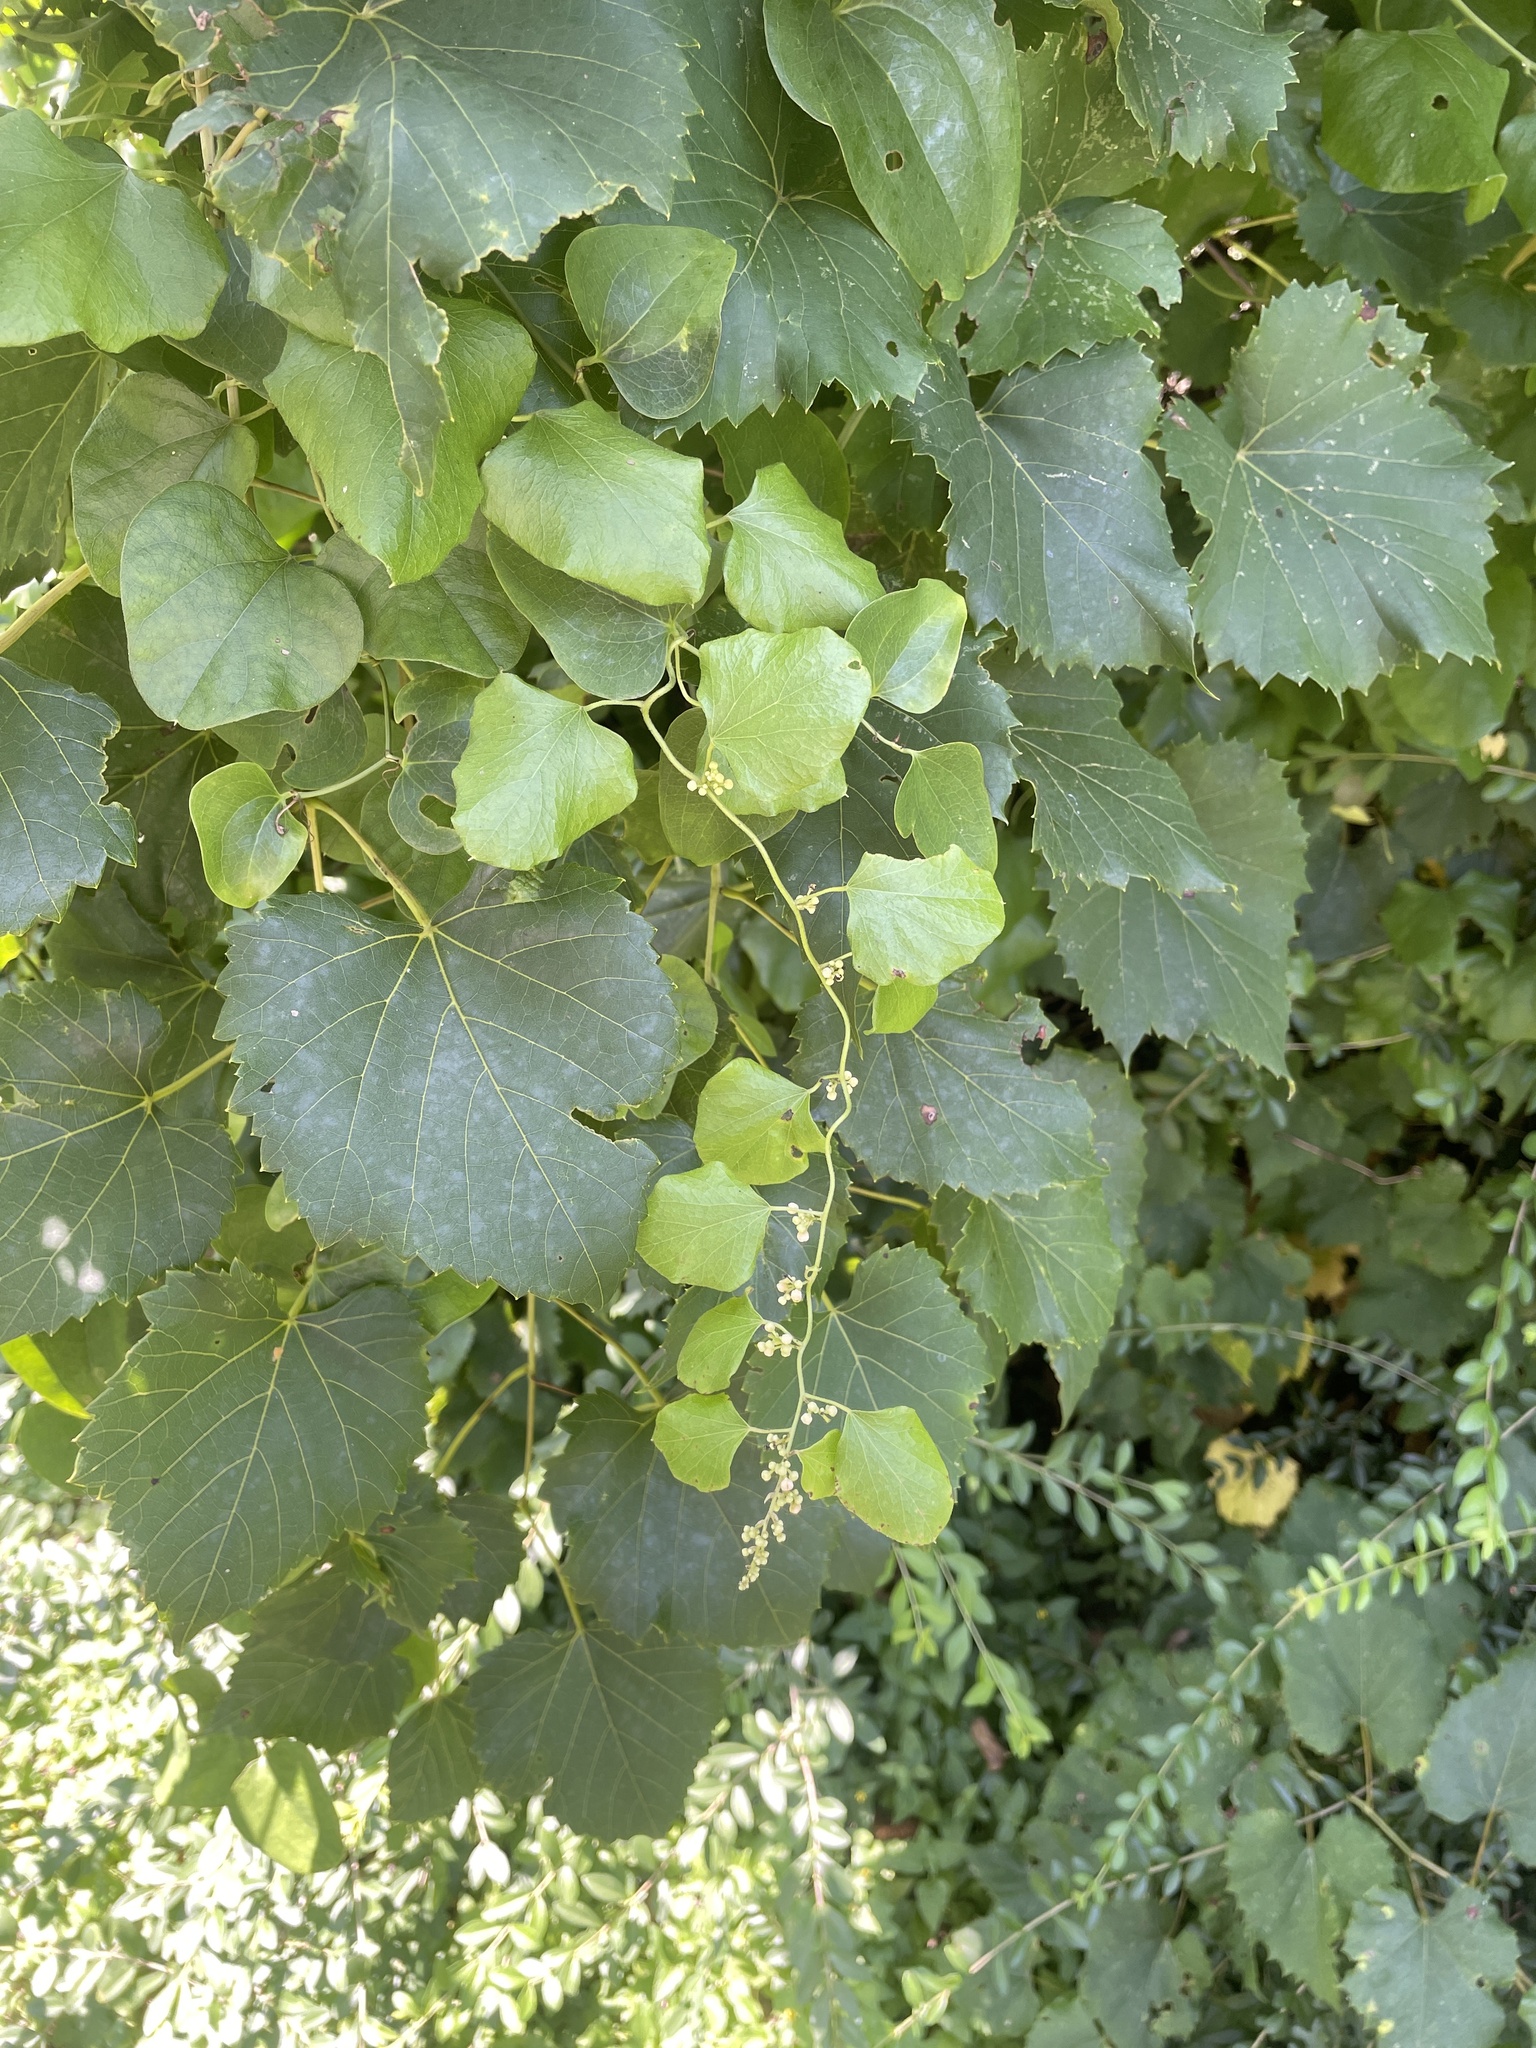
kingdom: Plantae
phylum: Tracheophyta
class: Magnoliopsida
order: Ranunculales
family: Menispermaceae
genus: Cocculus
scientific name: Cocculus carolinus
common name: Carolina moonseed
